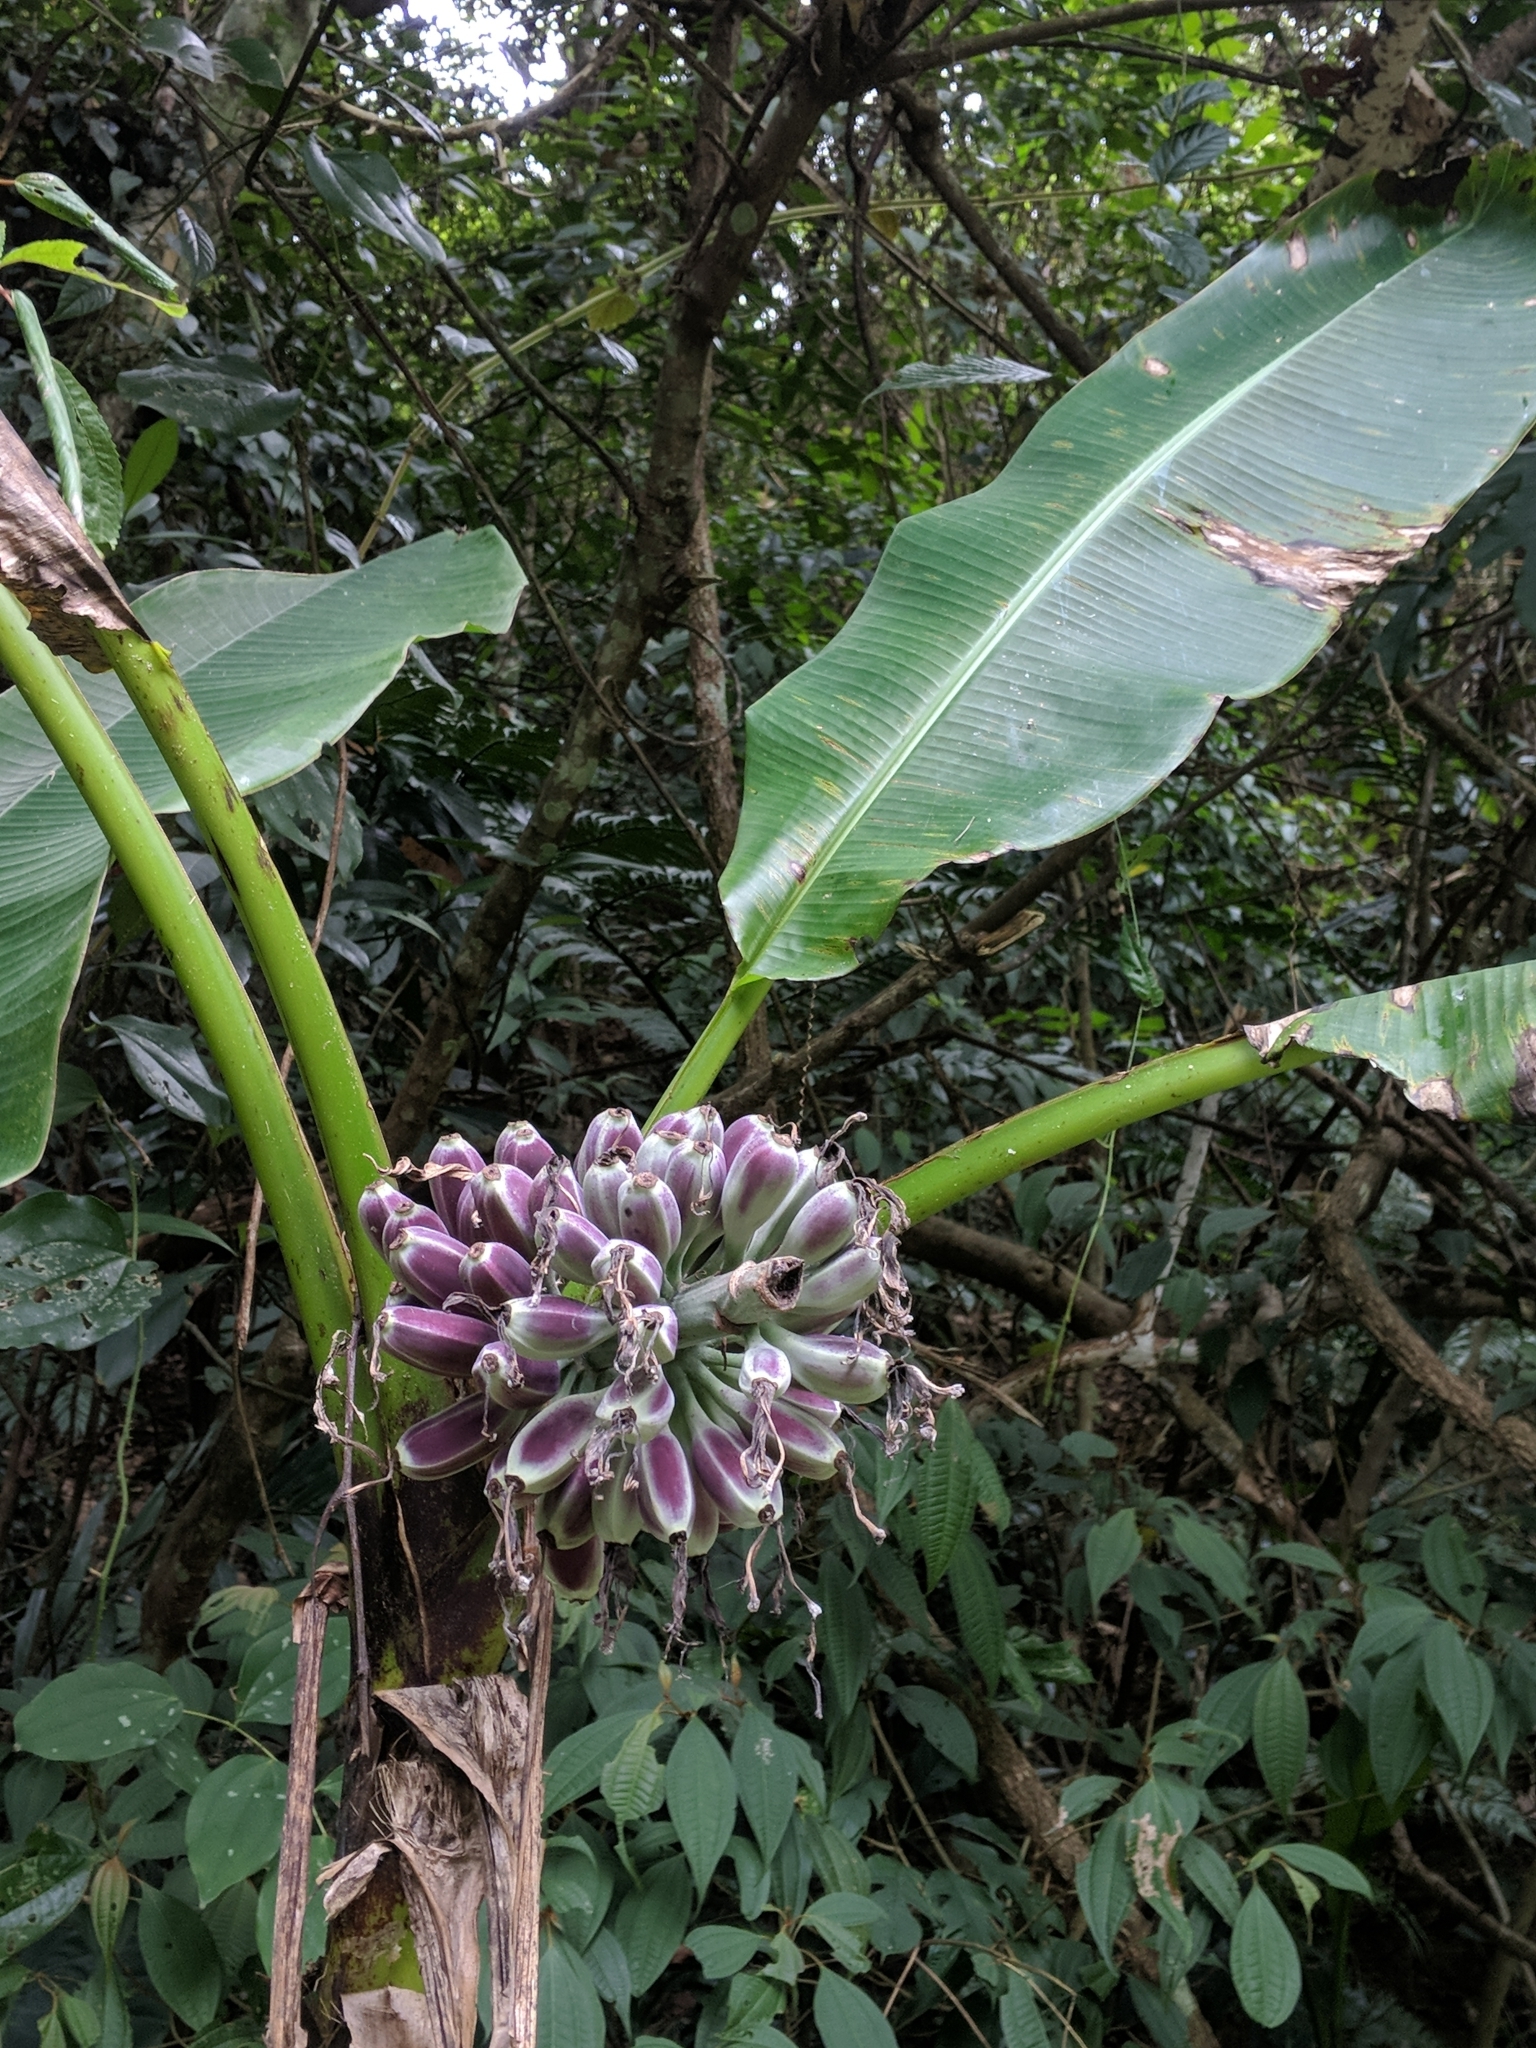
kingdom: Plantae
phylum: Tracheophyta
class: Liliopsida
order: Zingiberales
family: Musaceae
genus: Musa
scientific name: Musa itinerans
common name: Yunnan banana
